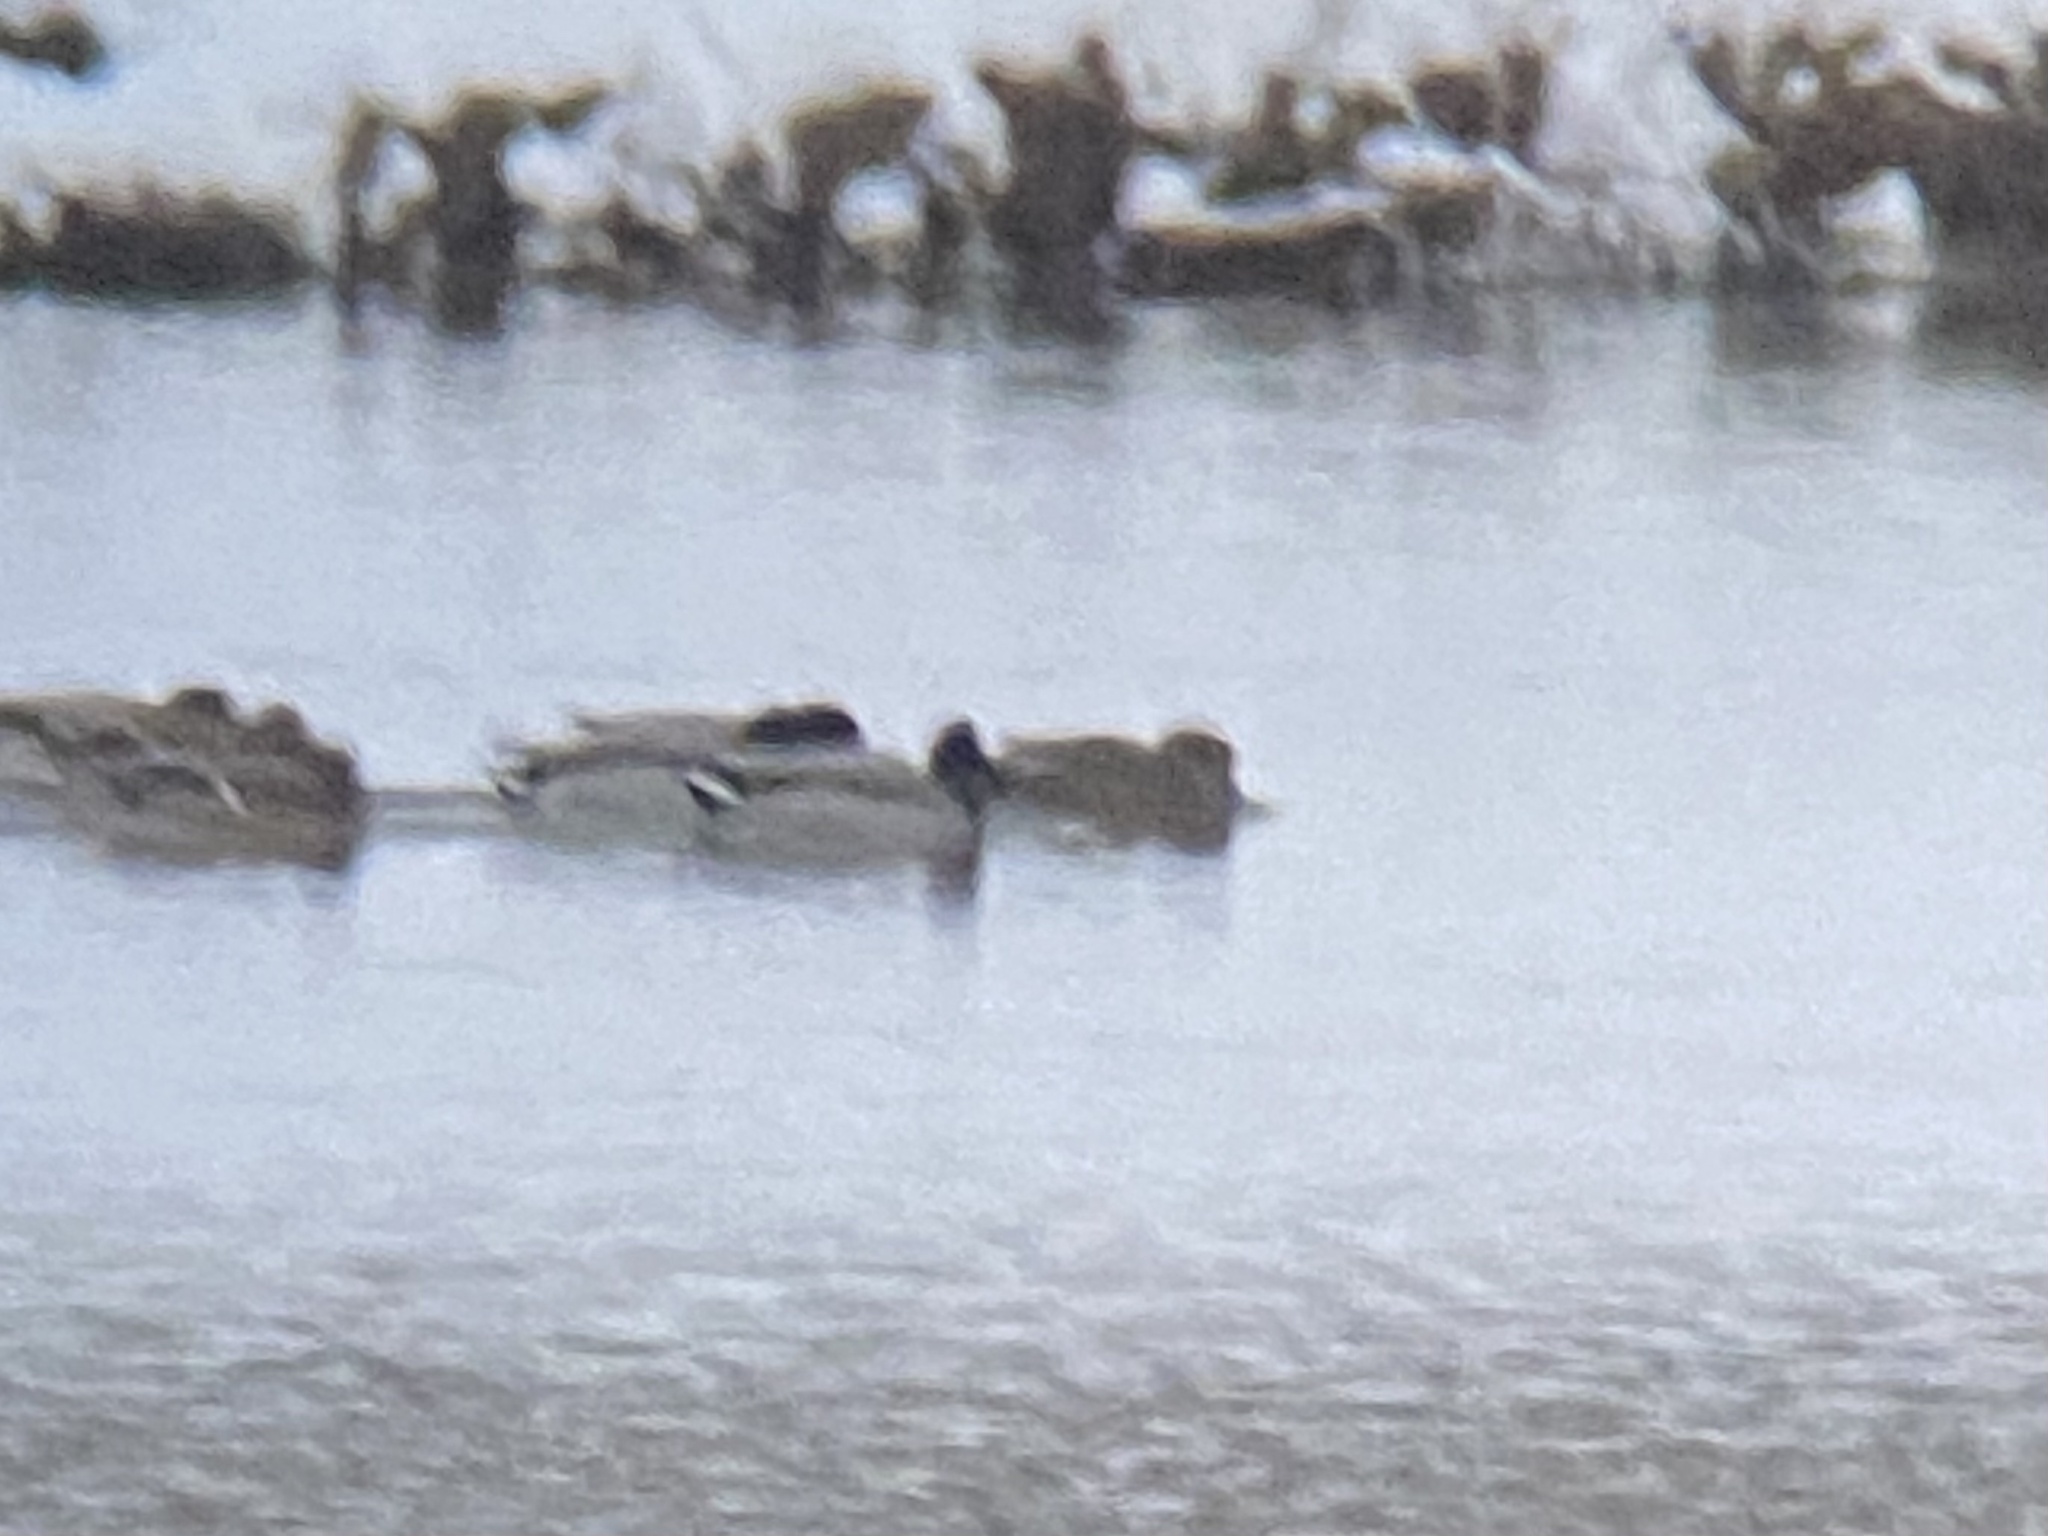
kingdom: Animalia
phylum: Chordata
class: Aves
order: Anseriformes
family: Anatidae
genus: Mareca
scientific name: Mareca strepera
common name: Gadwall
